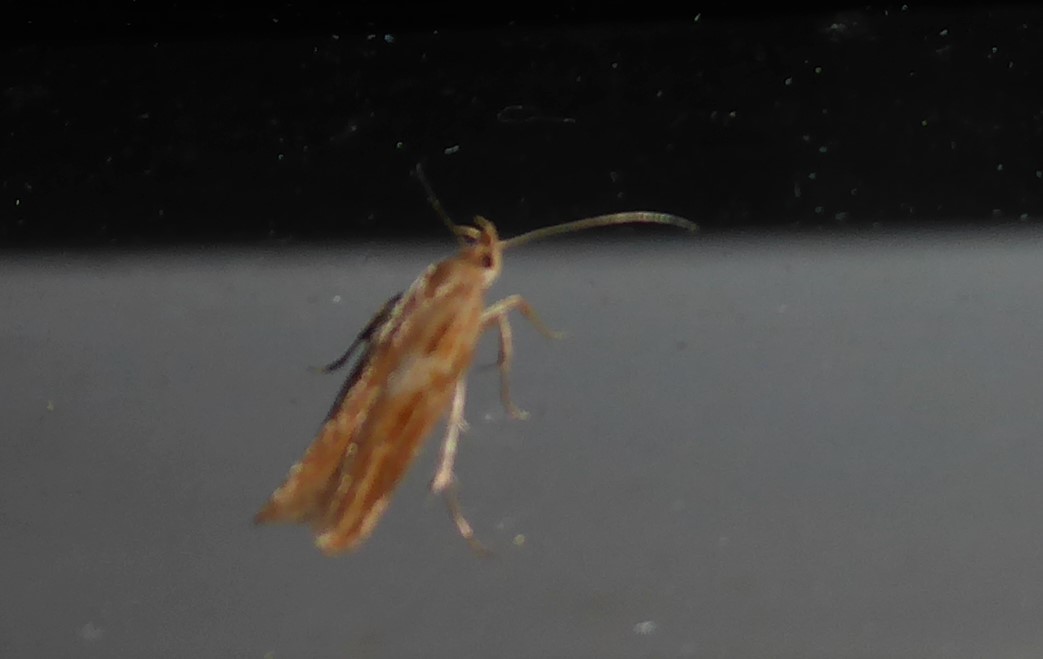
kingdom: Animalia
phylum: Arthropoda
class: Insecta
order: Lepidoptera
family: Depressariidae
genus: Eutorna
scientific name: Eutorna symmorpha
